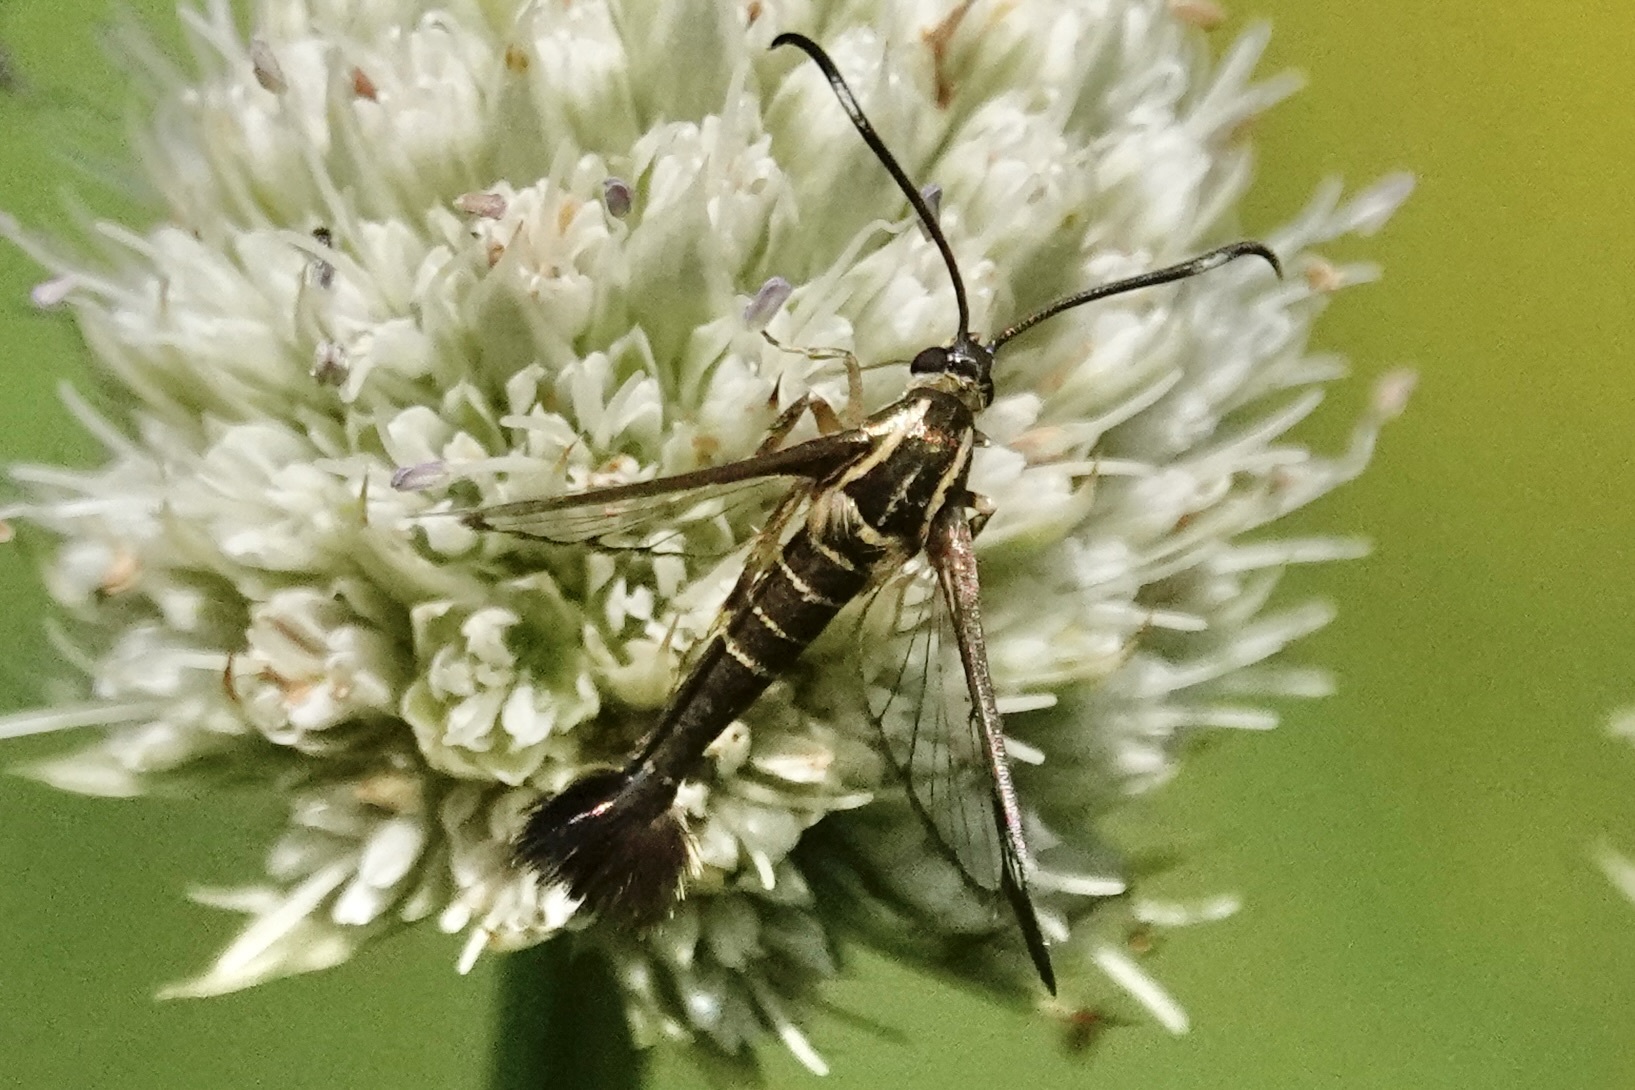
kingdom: Animalia
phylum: Arthropoda
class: Insecta
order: Lepidoptera
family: Sesiidae
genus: Carmenta
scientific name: Carmenta bassiformis
